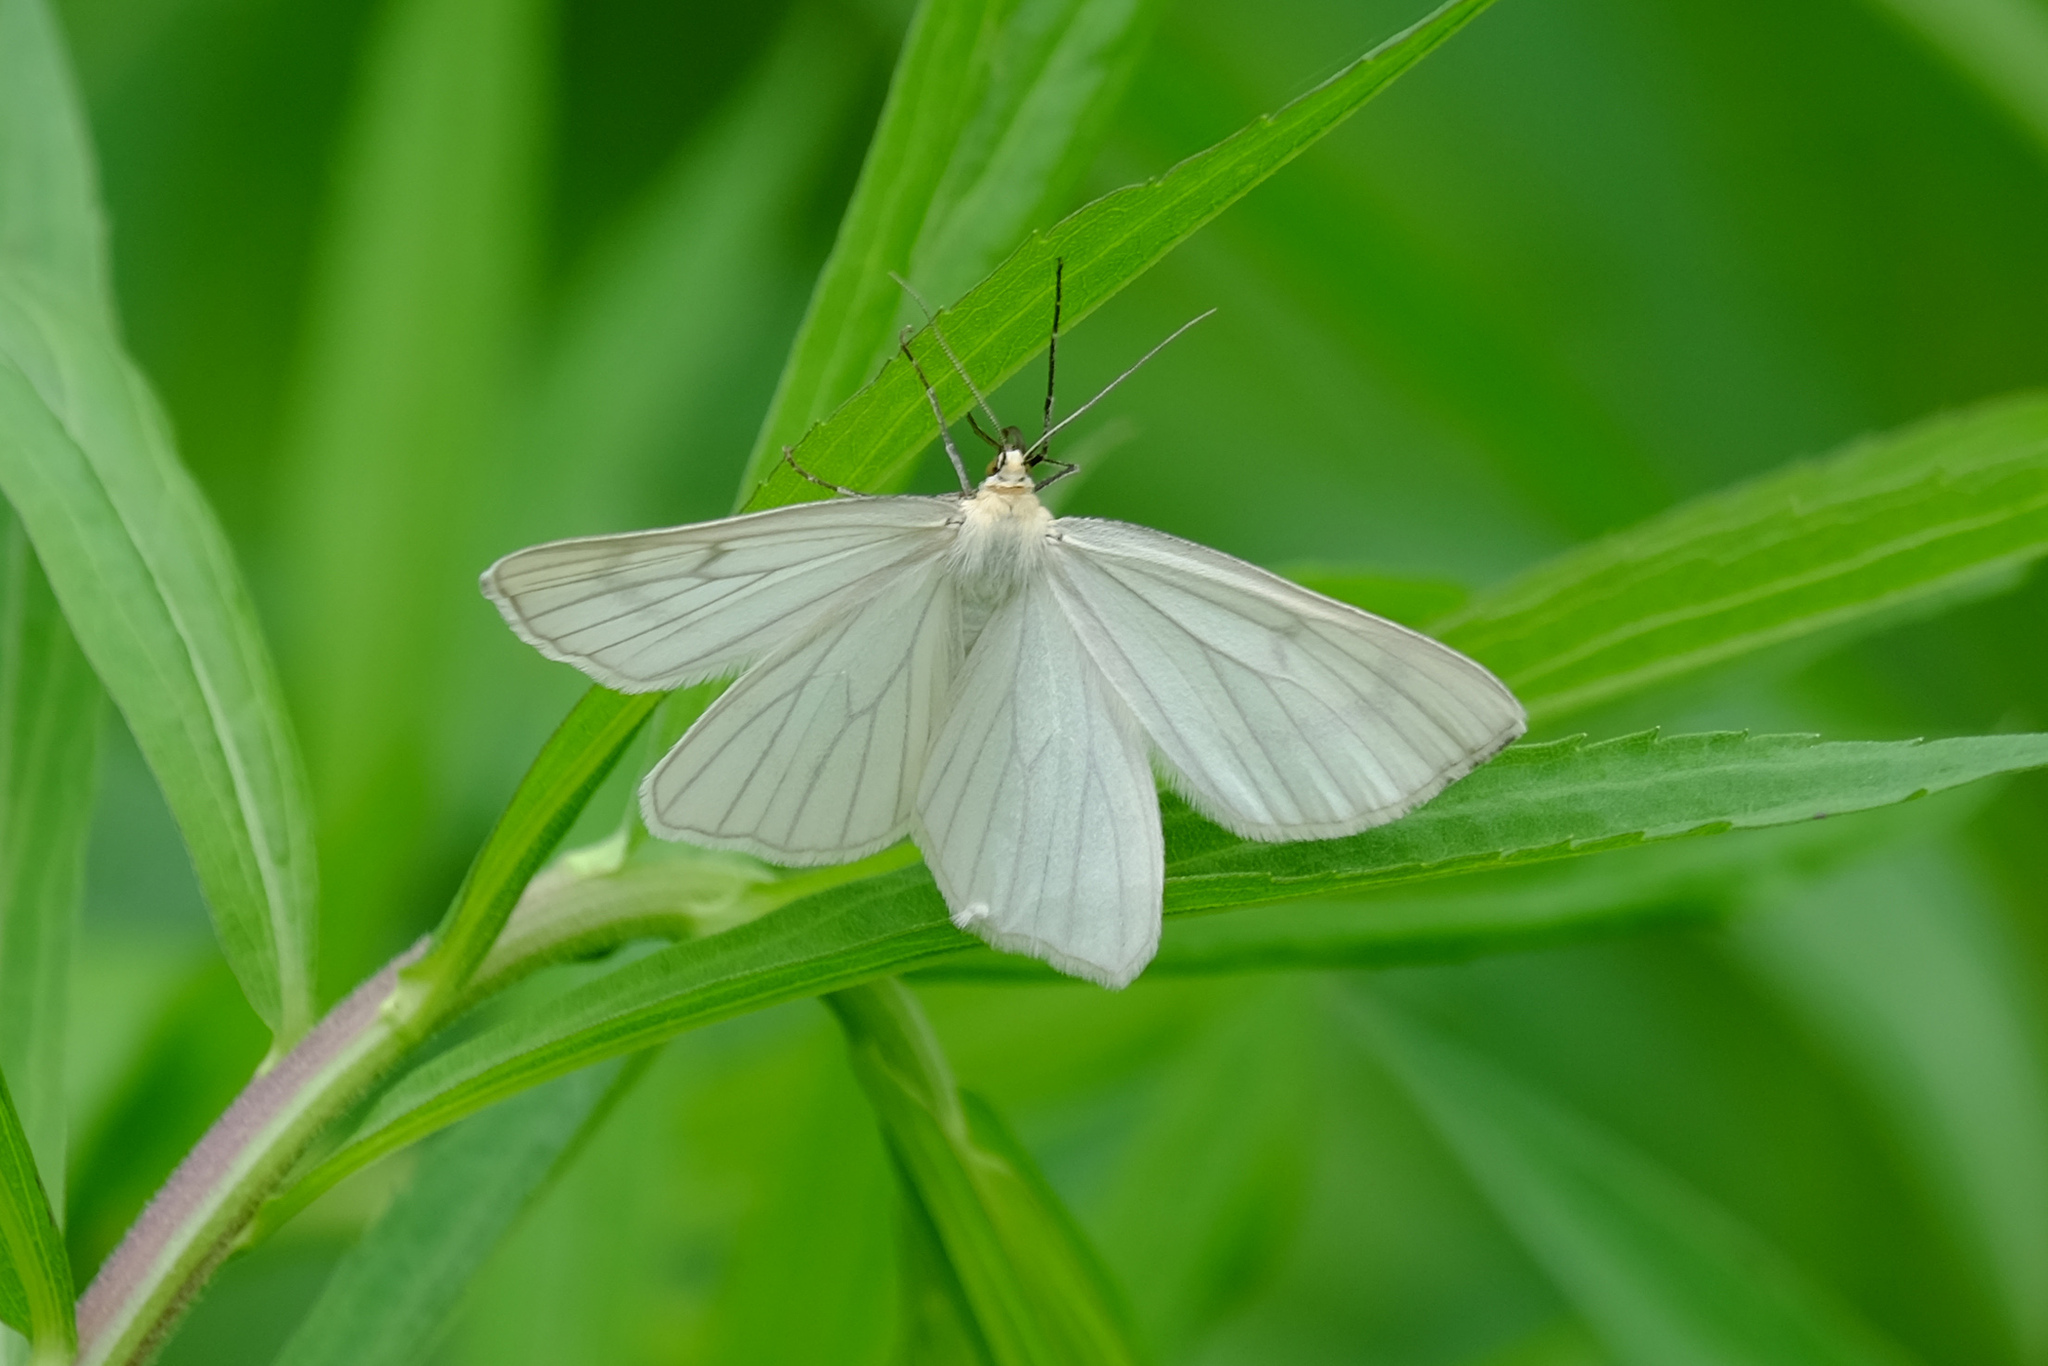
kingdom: Animalia
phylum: Arthropoda
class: Insecta
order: Lepidoptera
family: Geometridae
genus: Siona
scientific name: Siona lineata
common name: Black-veined moth
